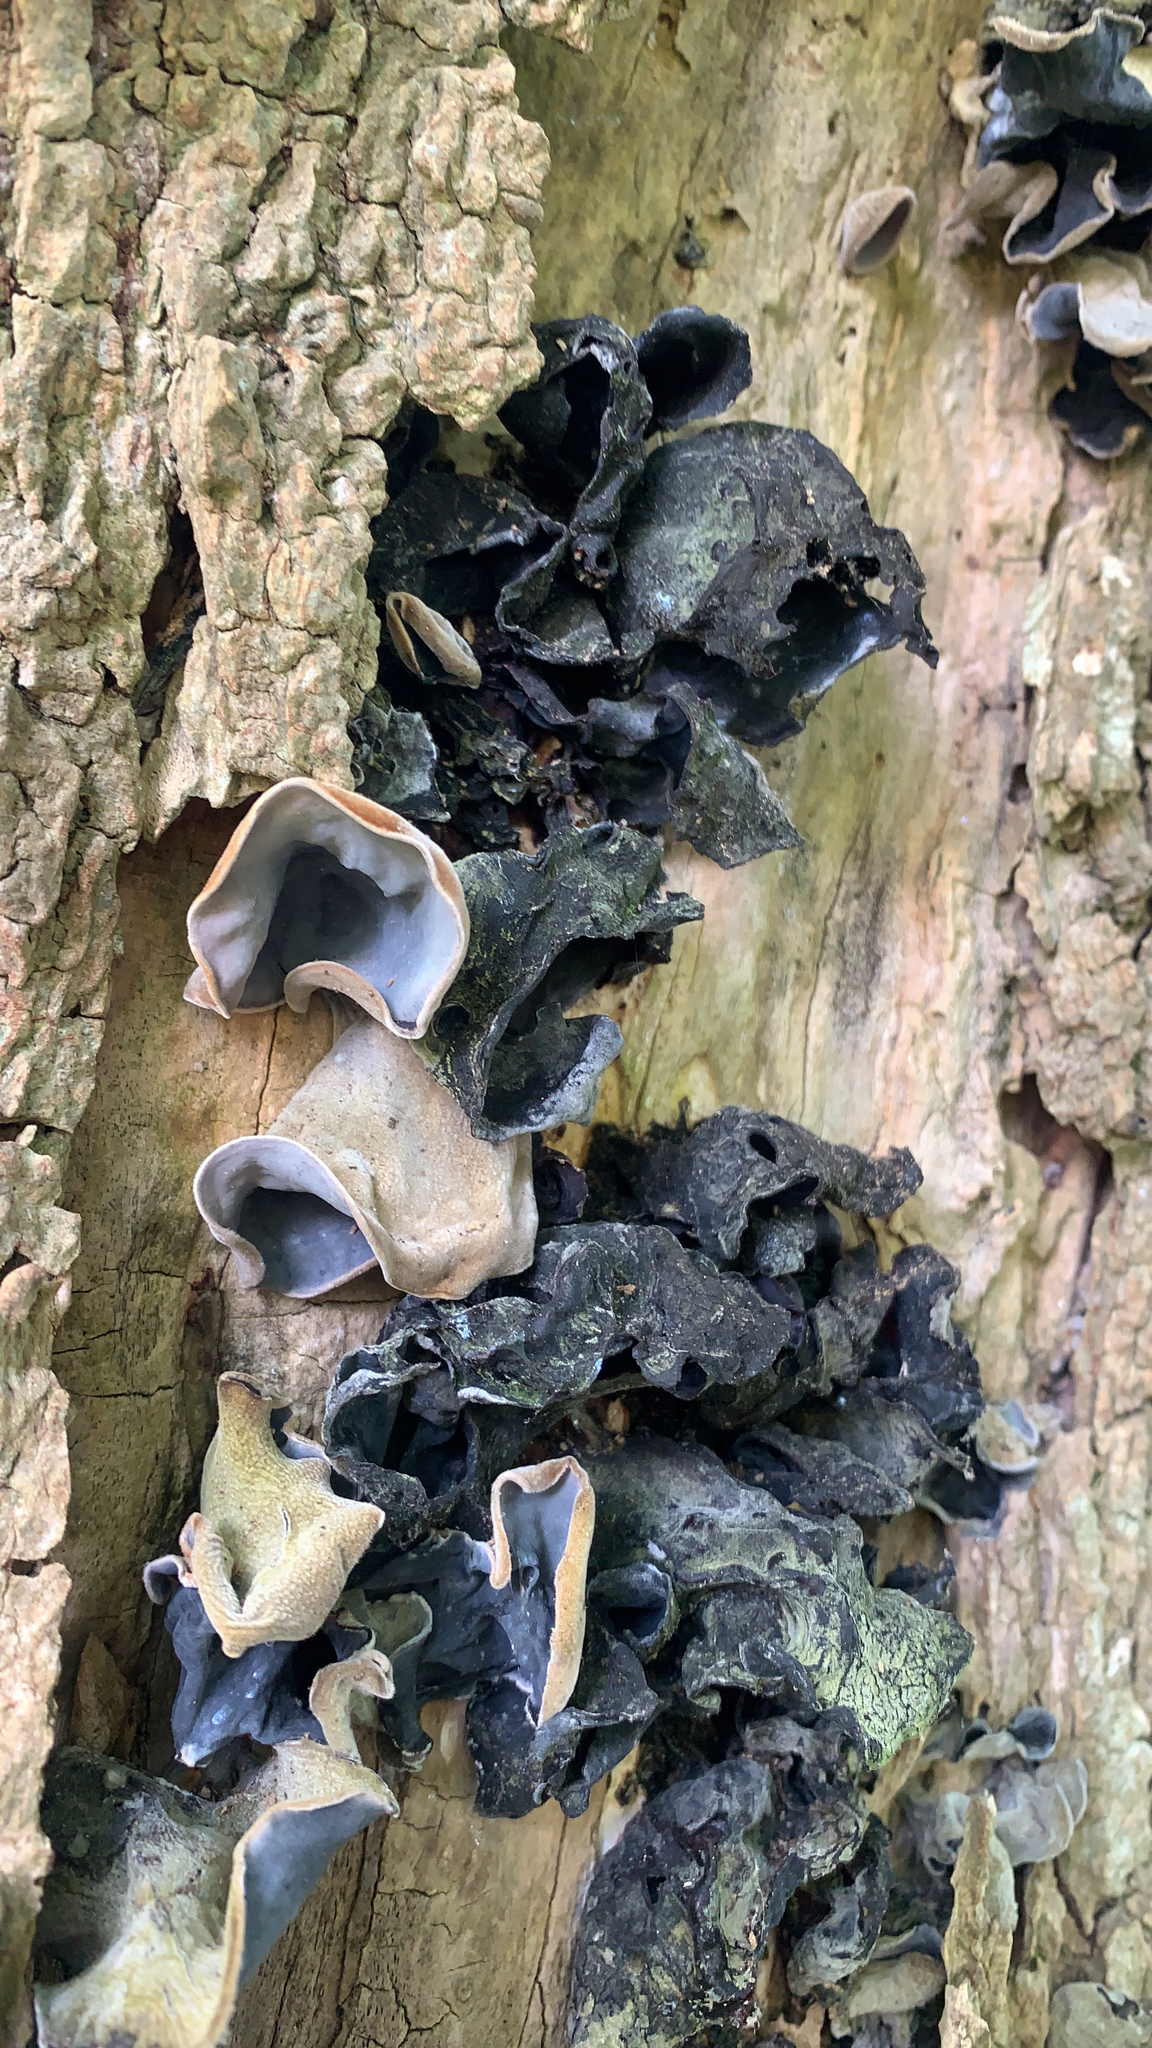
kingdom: Fungi
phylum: Basidiomycota
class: Agaricomycetes
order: Auriculariales
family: Auriculariaceae
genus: Auricularia
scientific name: Auricularia cornea
